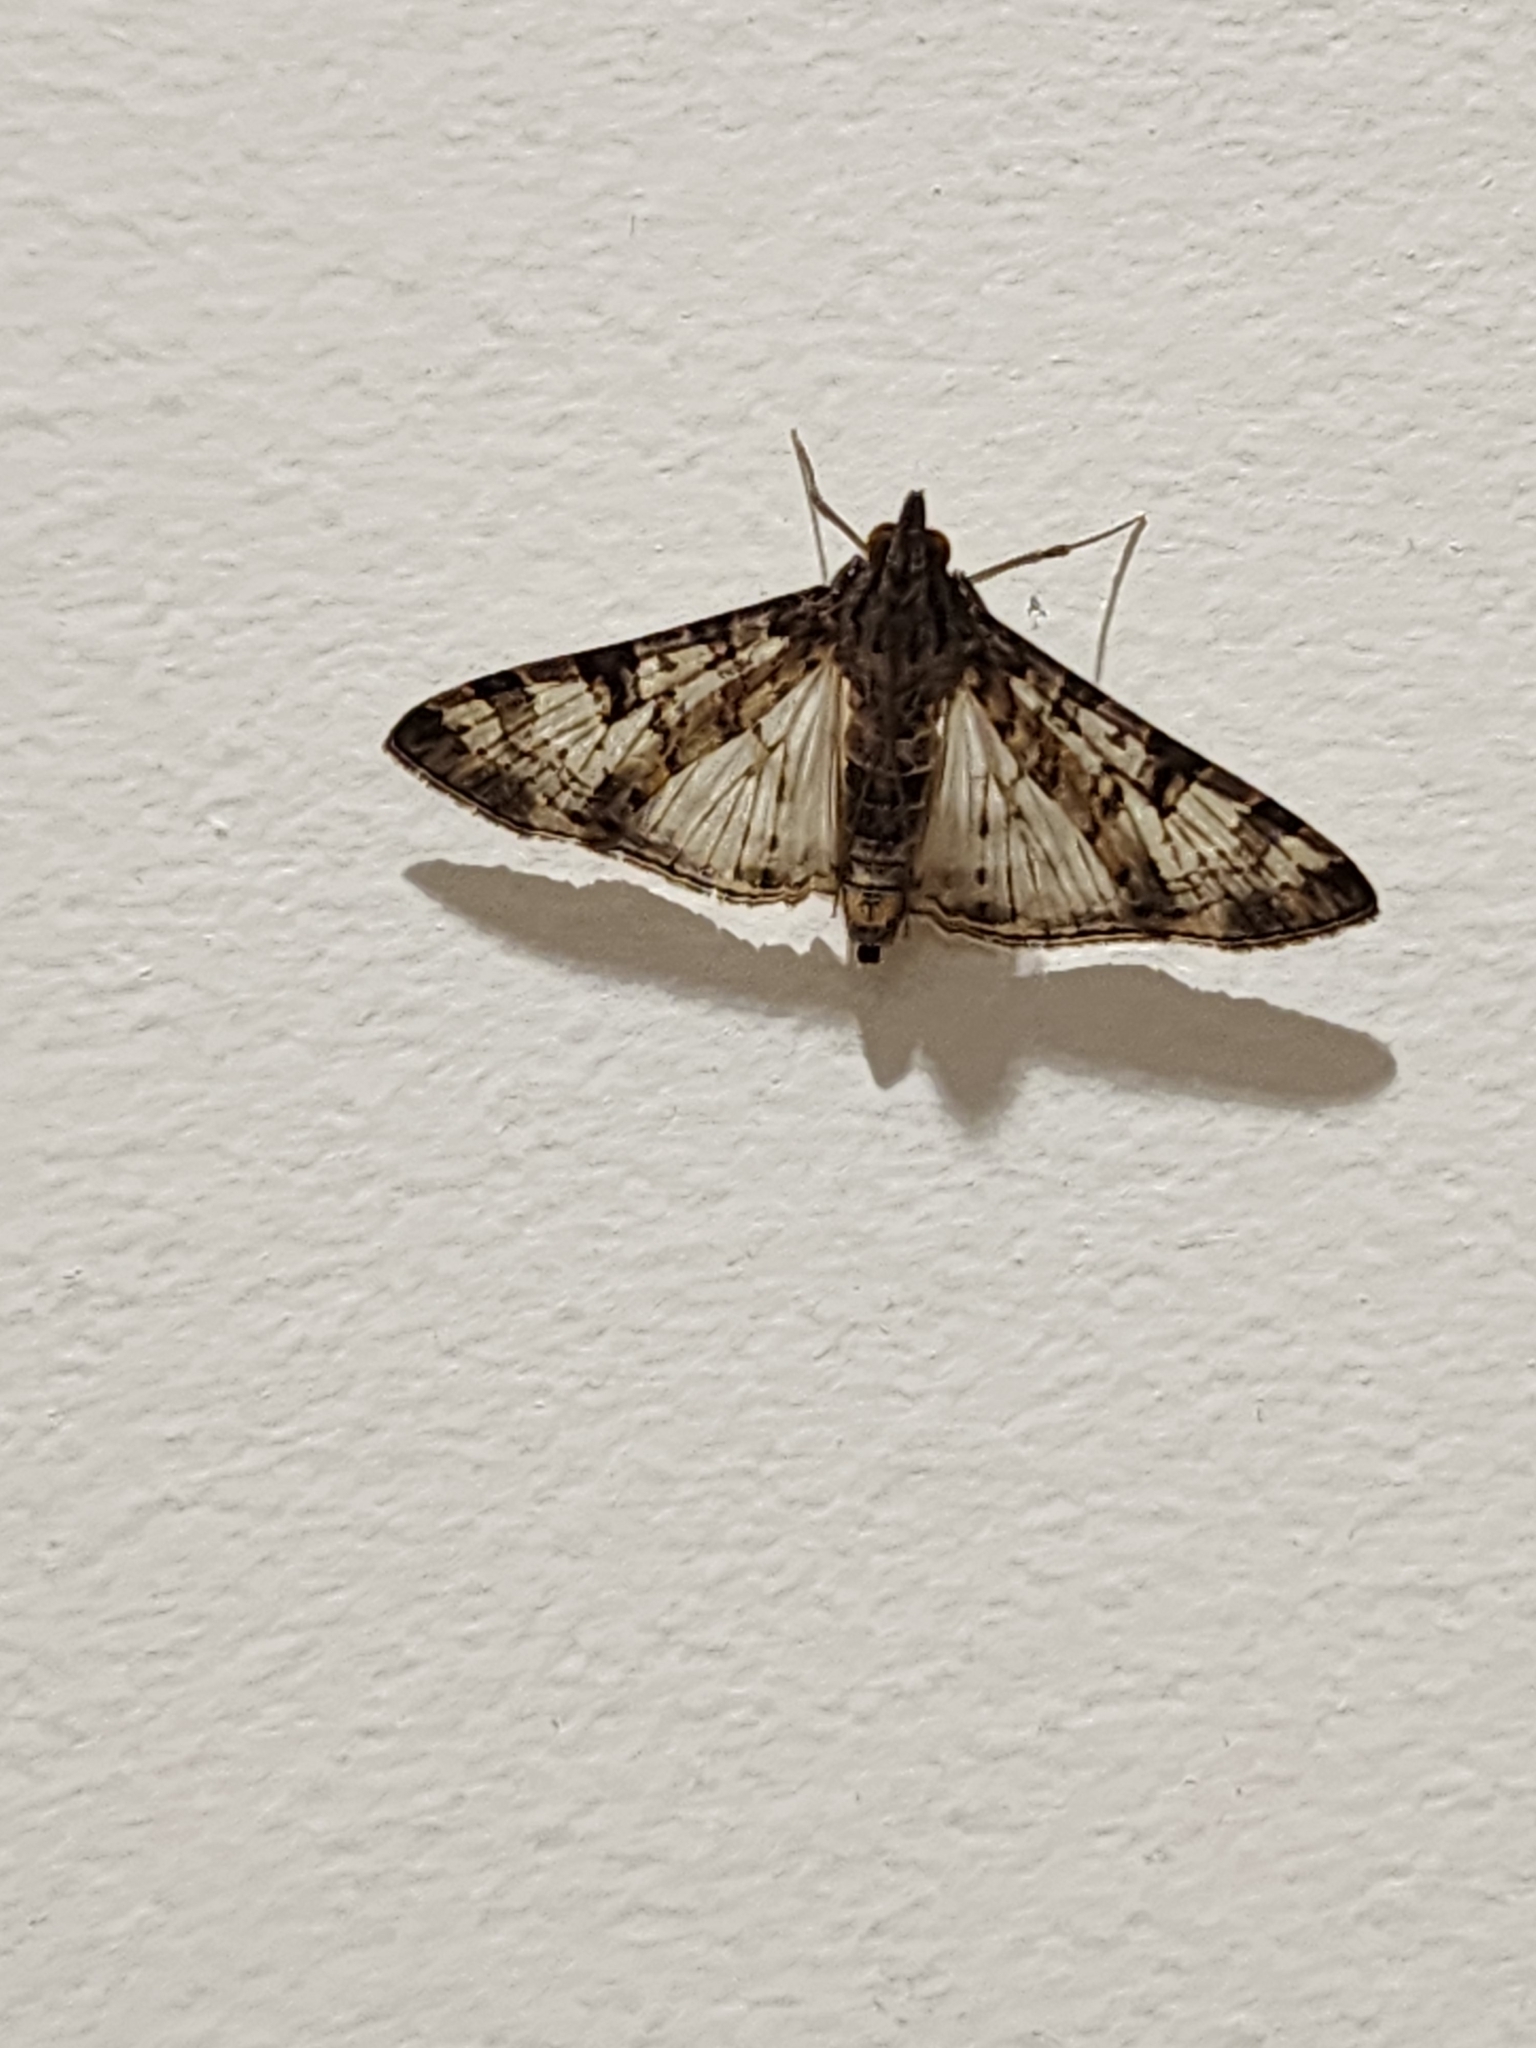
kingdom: Animalia
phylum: Arthropoda
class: Insecta
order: Lepidoptera
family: Crambidae
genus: Dysallacta
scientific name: Dysallacta negatalis
